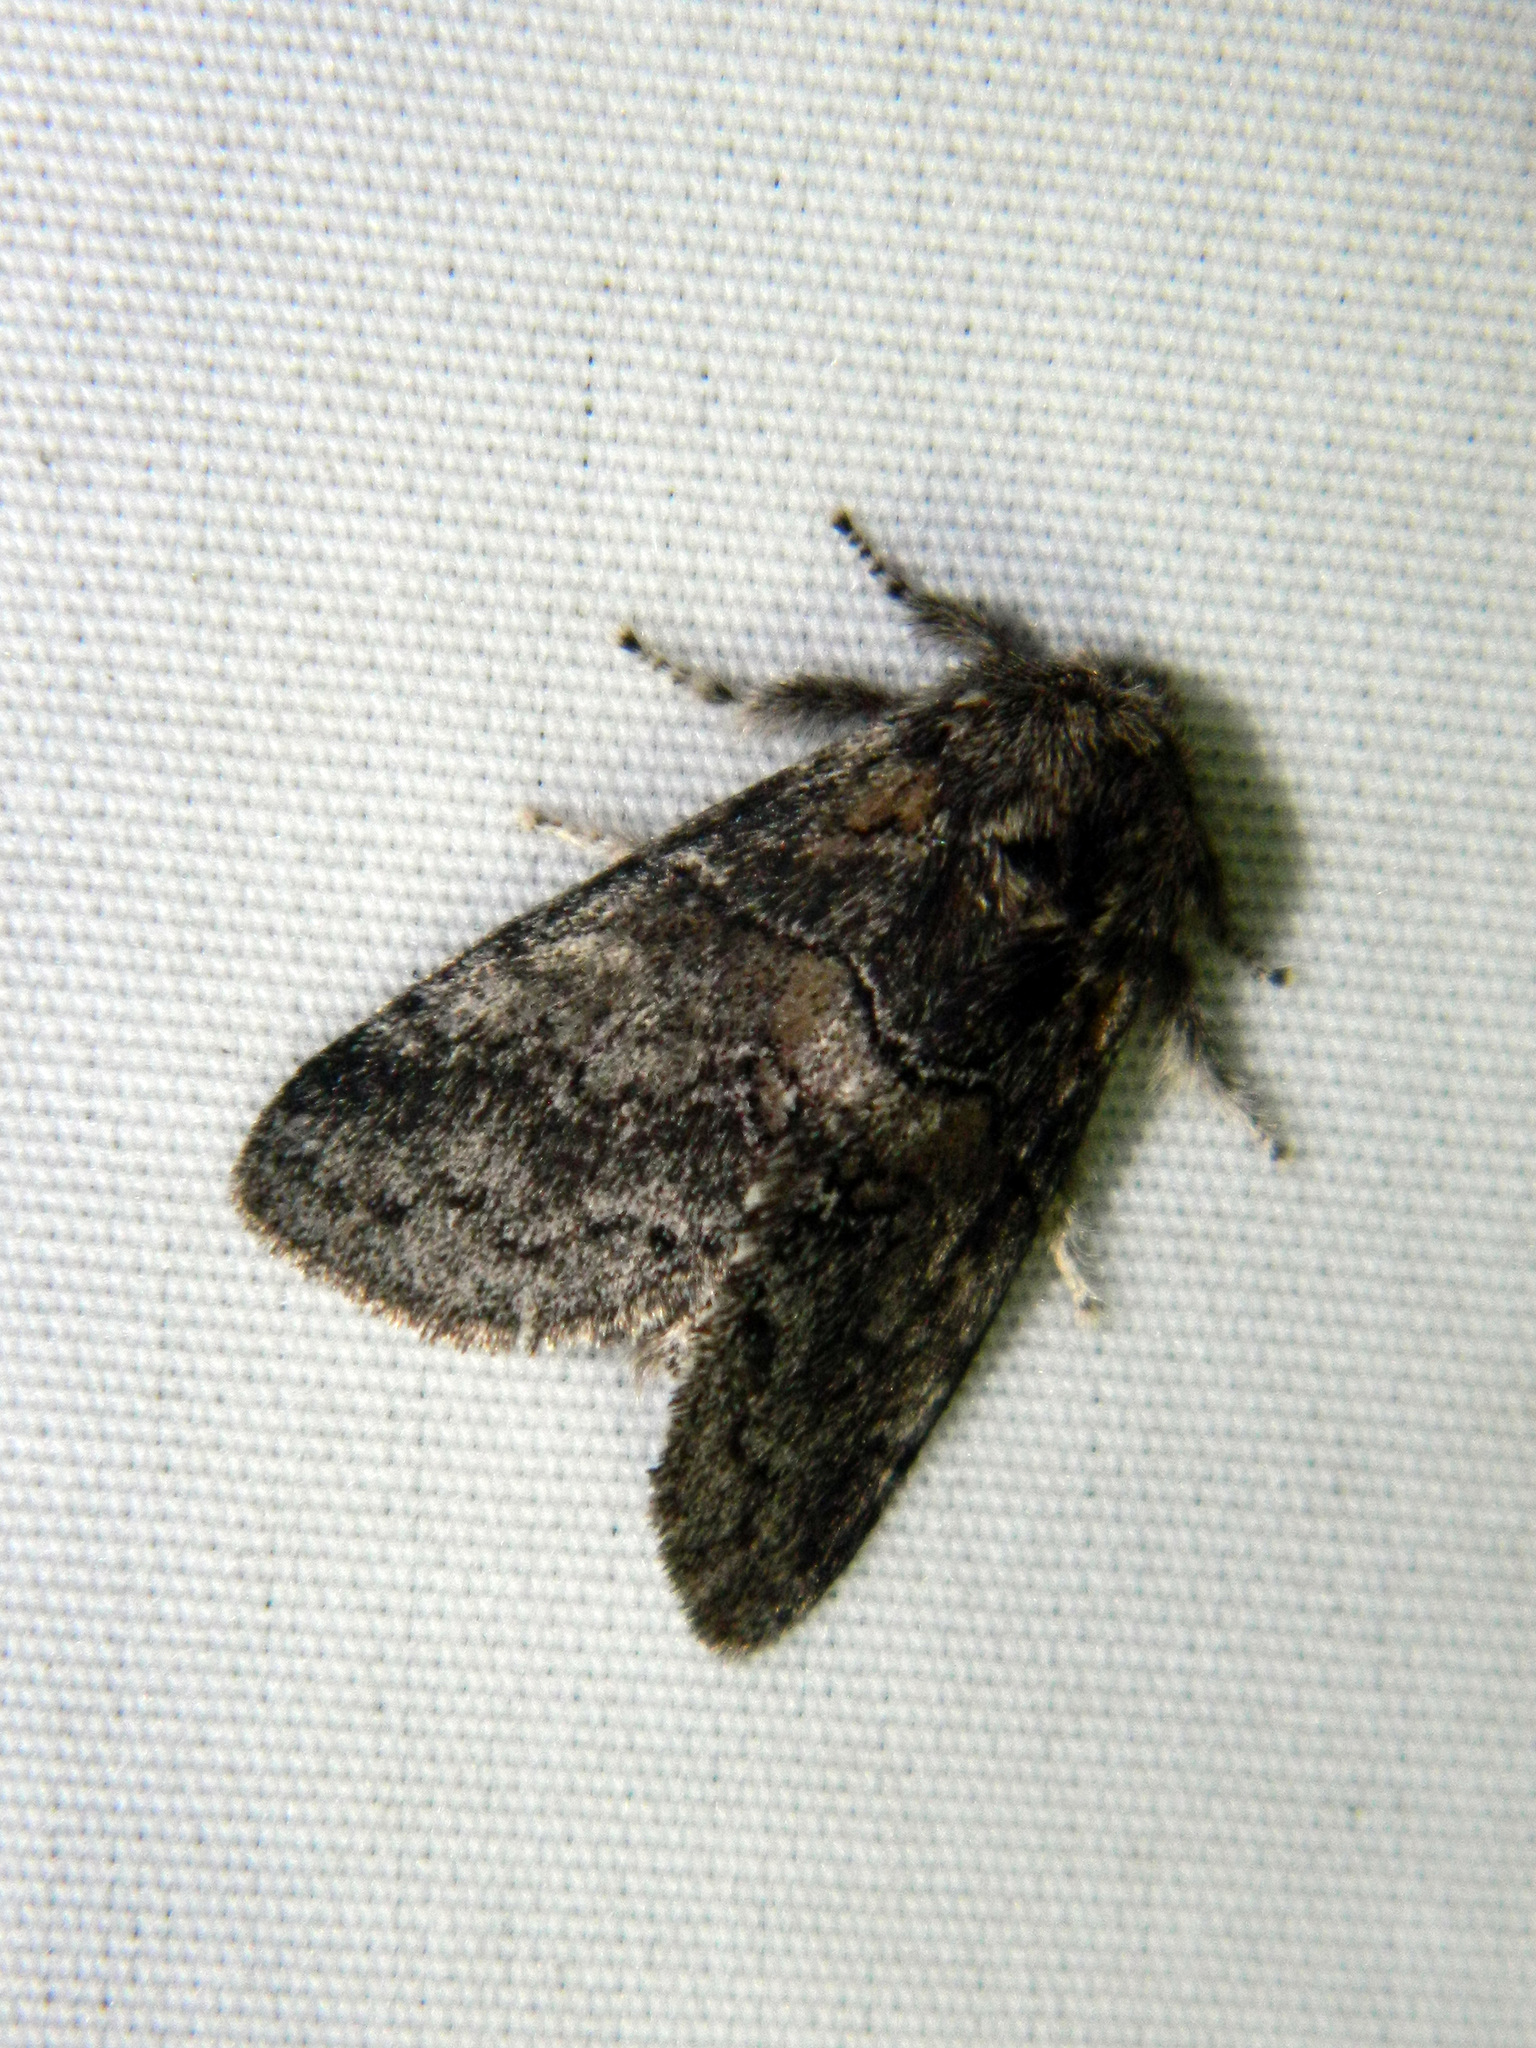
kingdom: Animalia
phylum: Arthropoda
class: Insecta
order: Lepidoptera
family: Notodontidae
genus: Gluphisia
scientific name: Gluphisia septentrionis
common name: Common gluphisia
